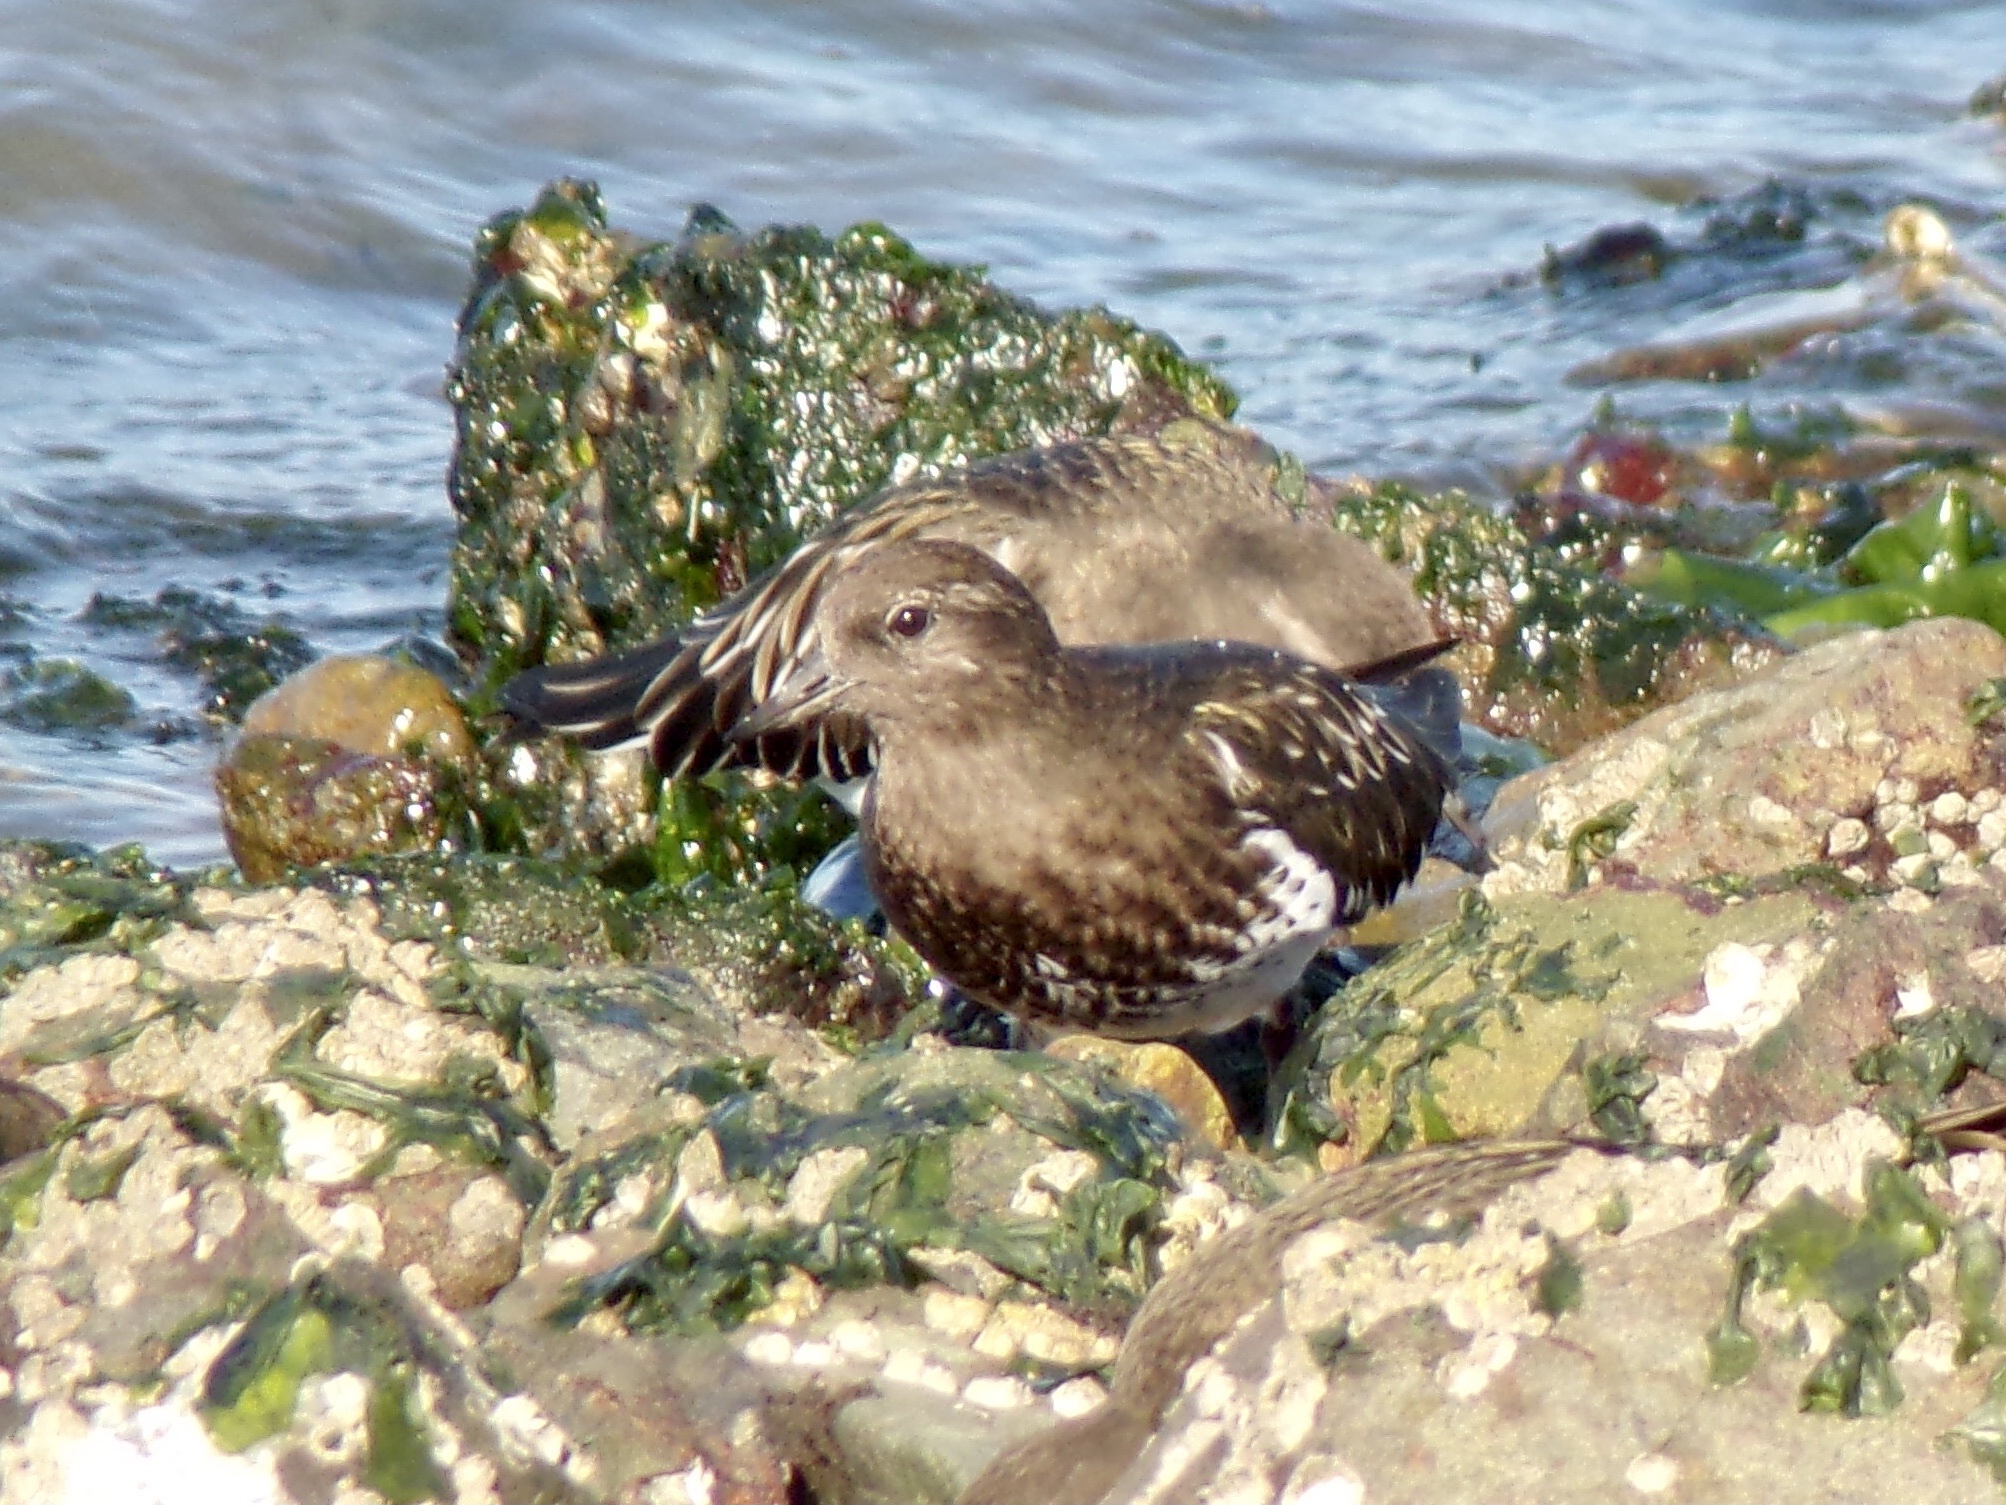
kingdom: Animalia
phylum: Chordata
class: Aves
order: Charadriiformes
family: Scolopacidae
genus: Arenaria
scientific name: Arenaria melanocephala
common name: Black turnstone
